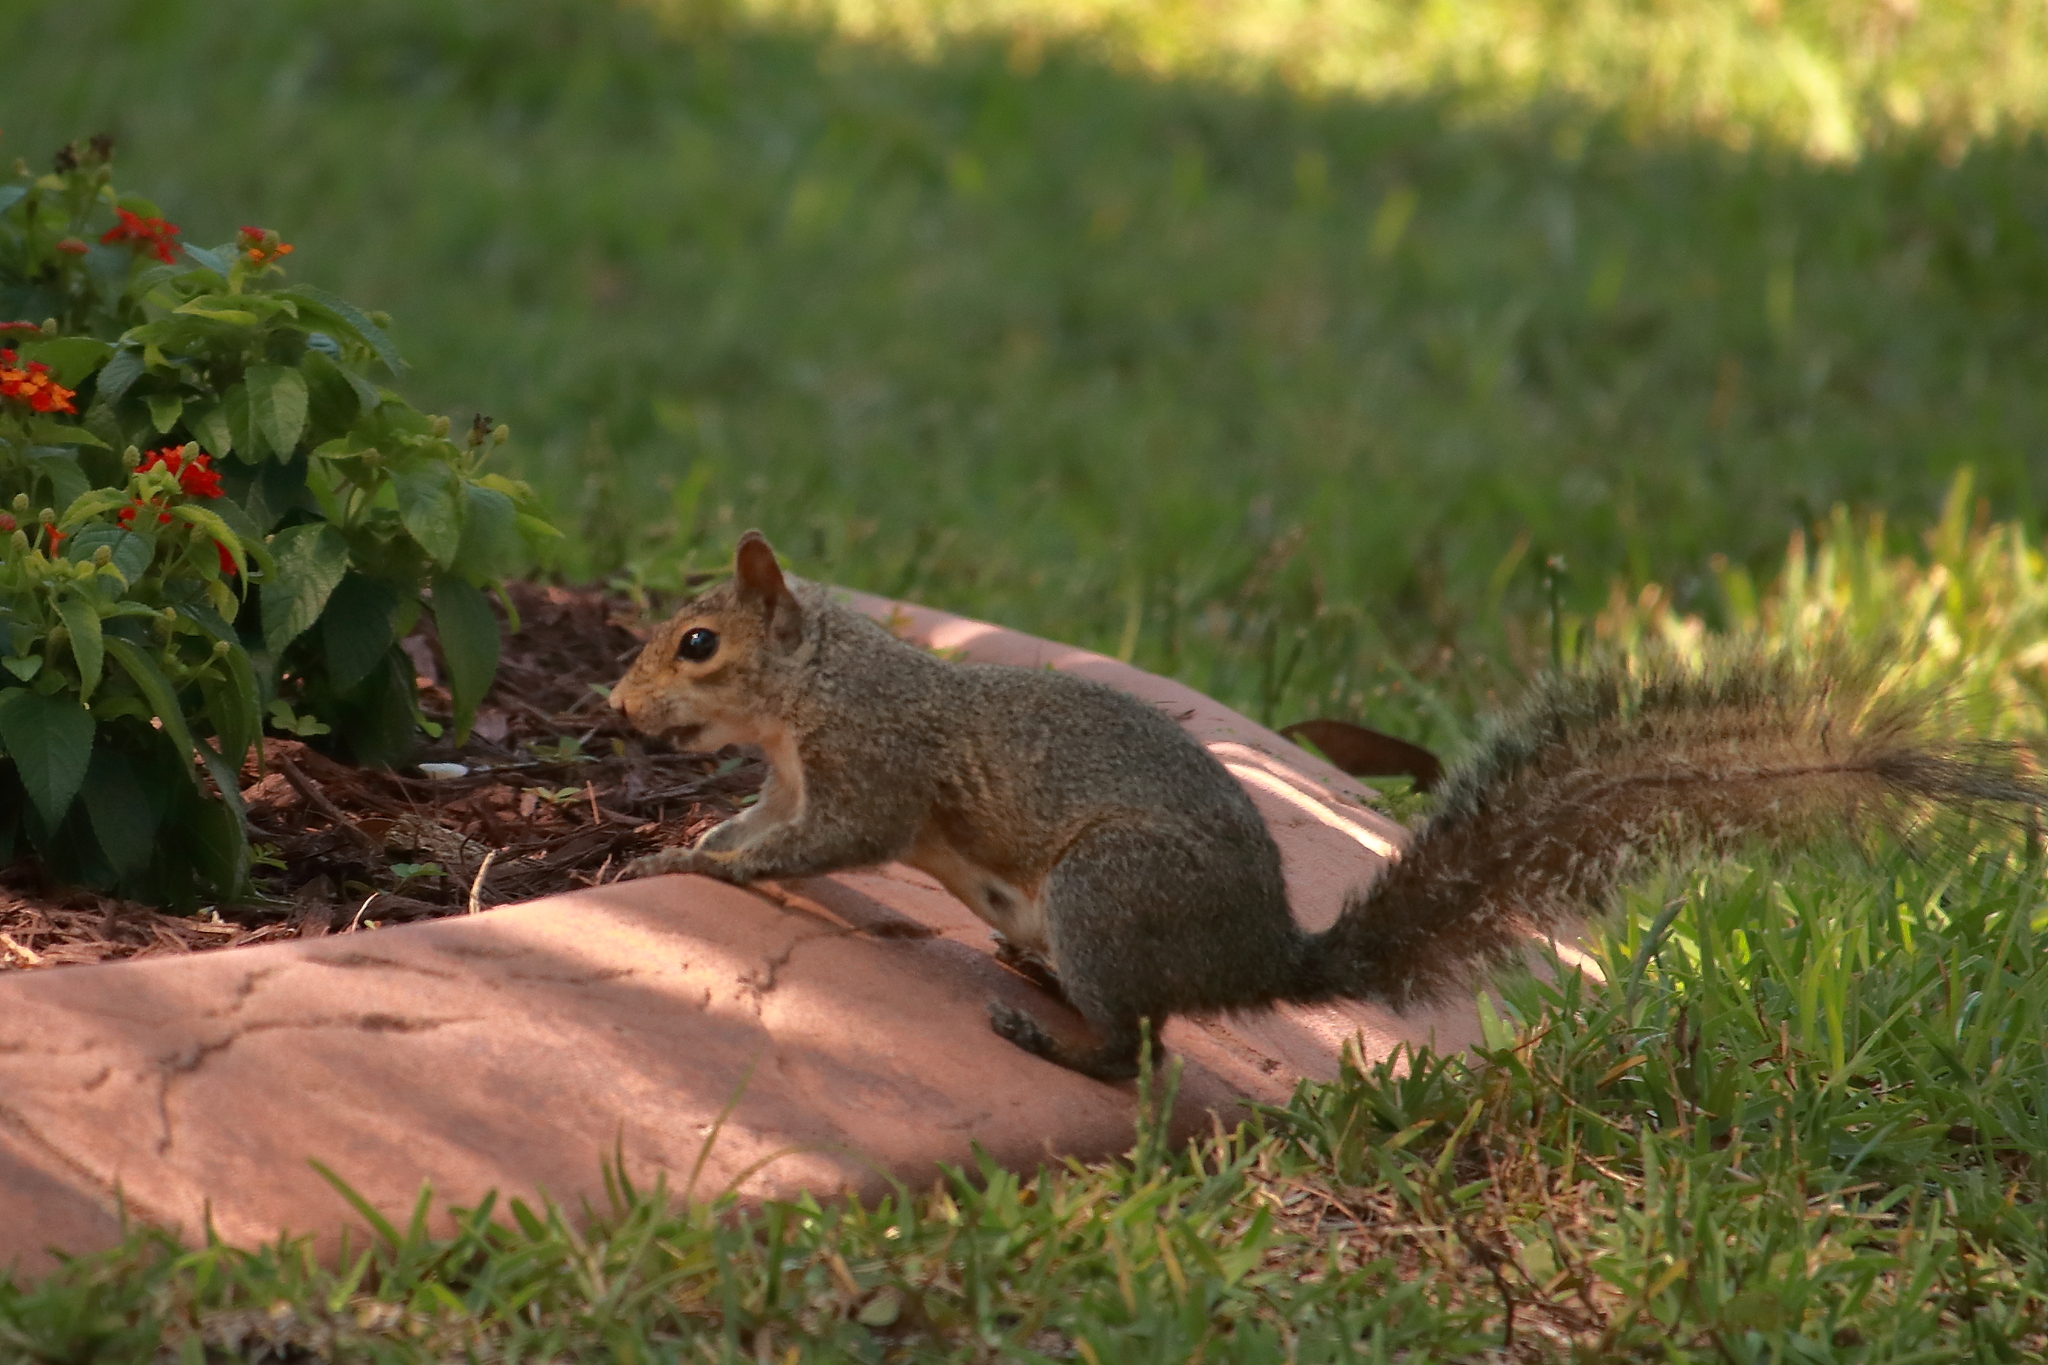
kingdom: Animalia
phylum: Chordata
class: Mammalia
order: Rodentia
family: Sciuridae
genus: Sciurus
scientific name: Sciurus carolinensis
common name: Eastern gray squirrel
